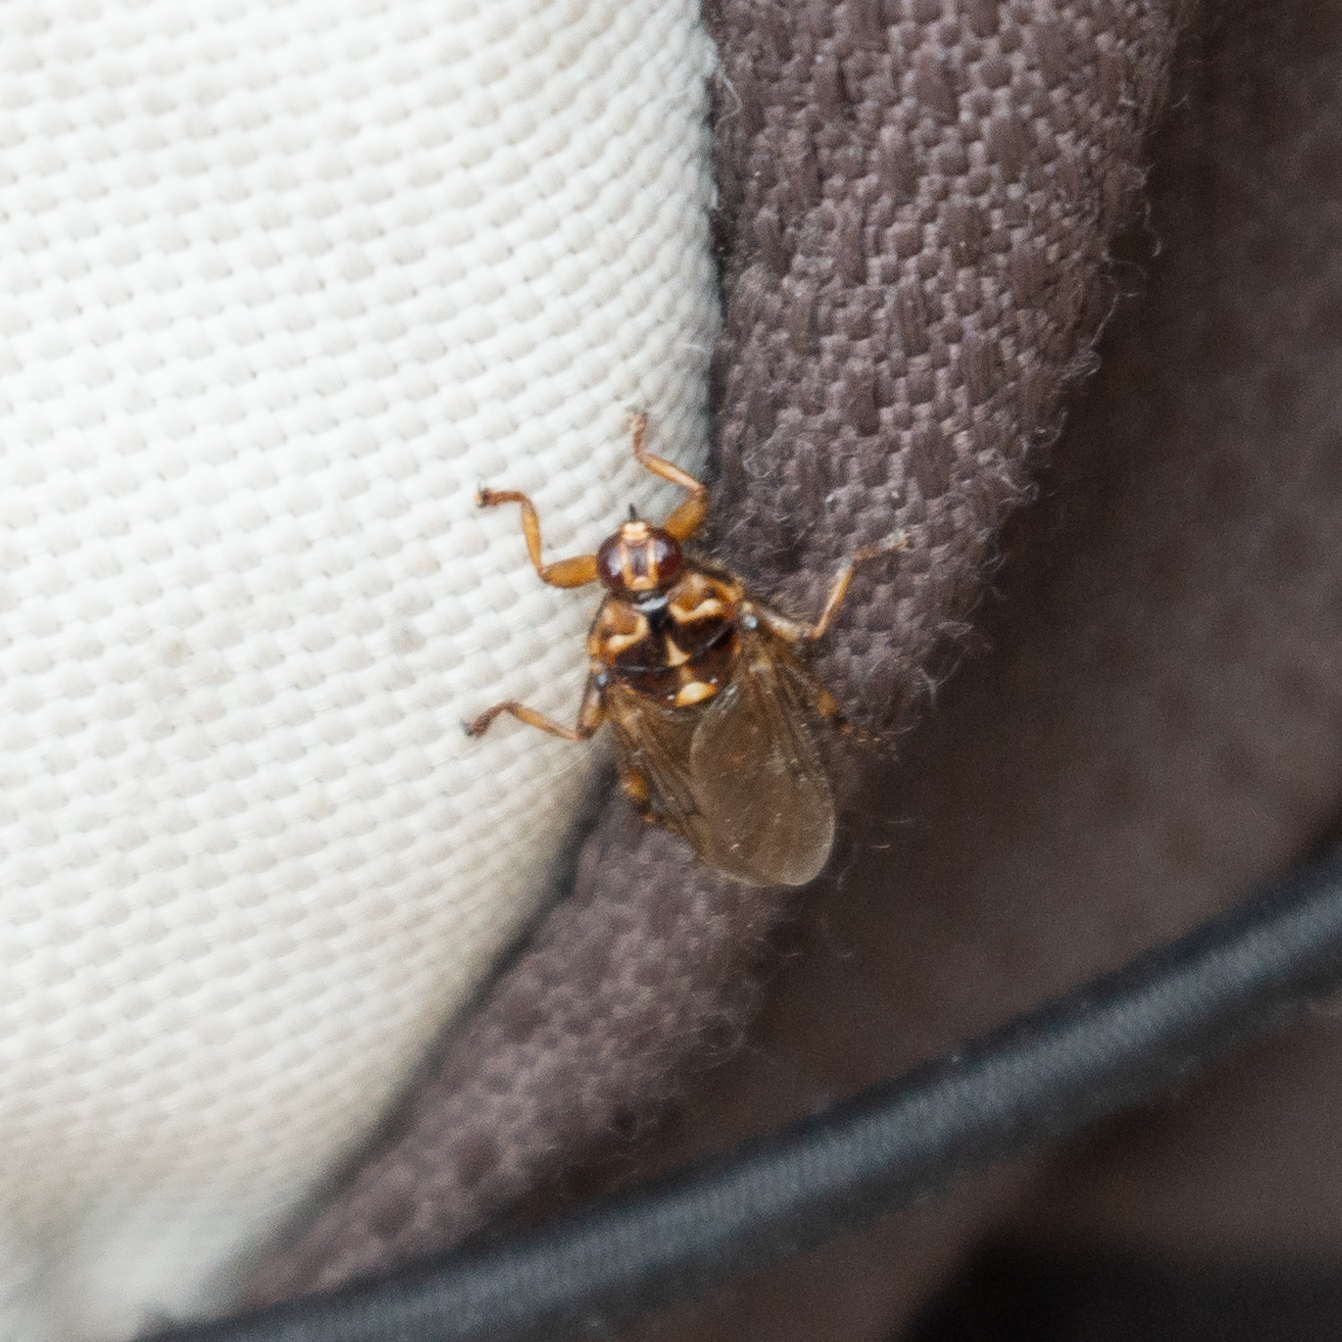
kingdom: Animalia
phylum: Arthropoda
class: Insecta
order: Diptera
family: Hippoboscidae
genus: Hippobosca
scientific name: Hippobosca equina
